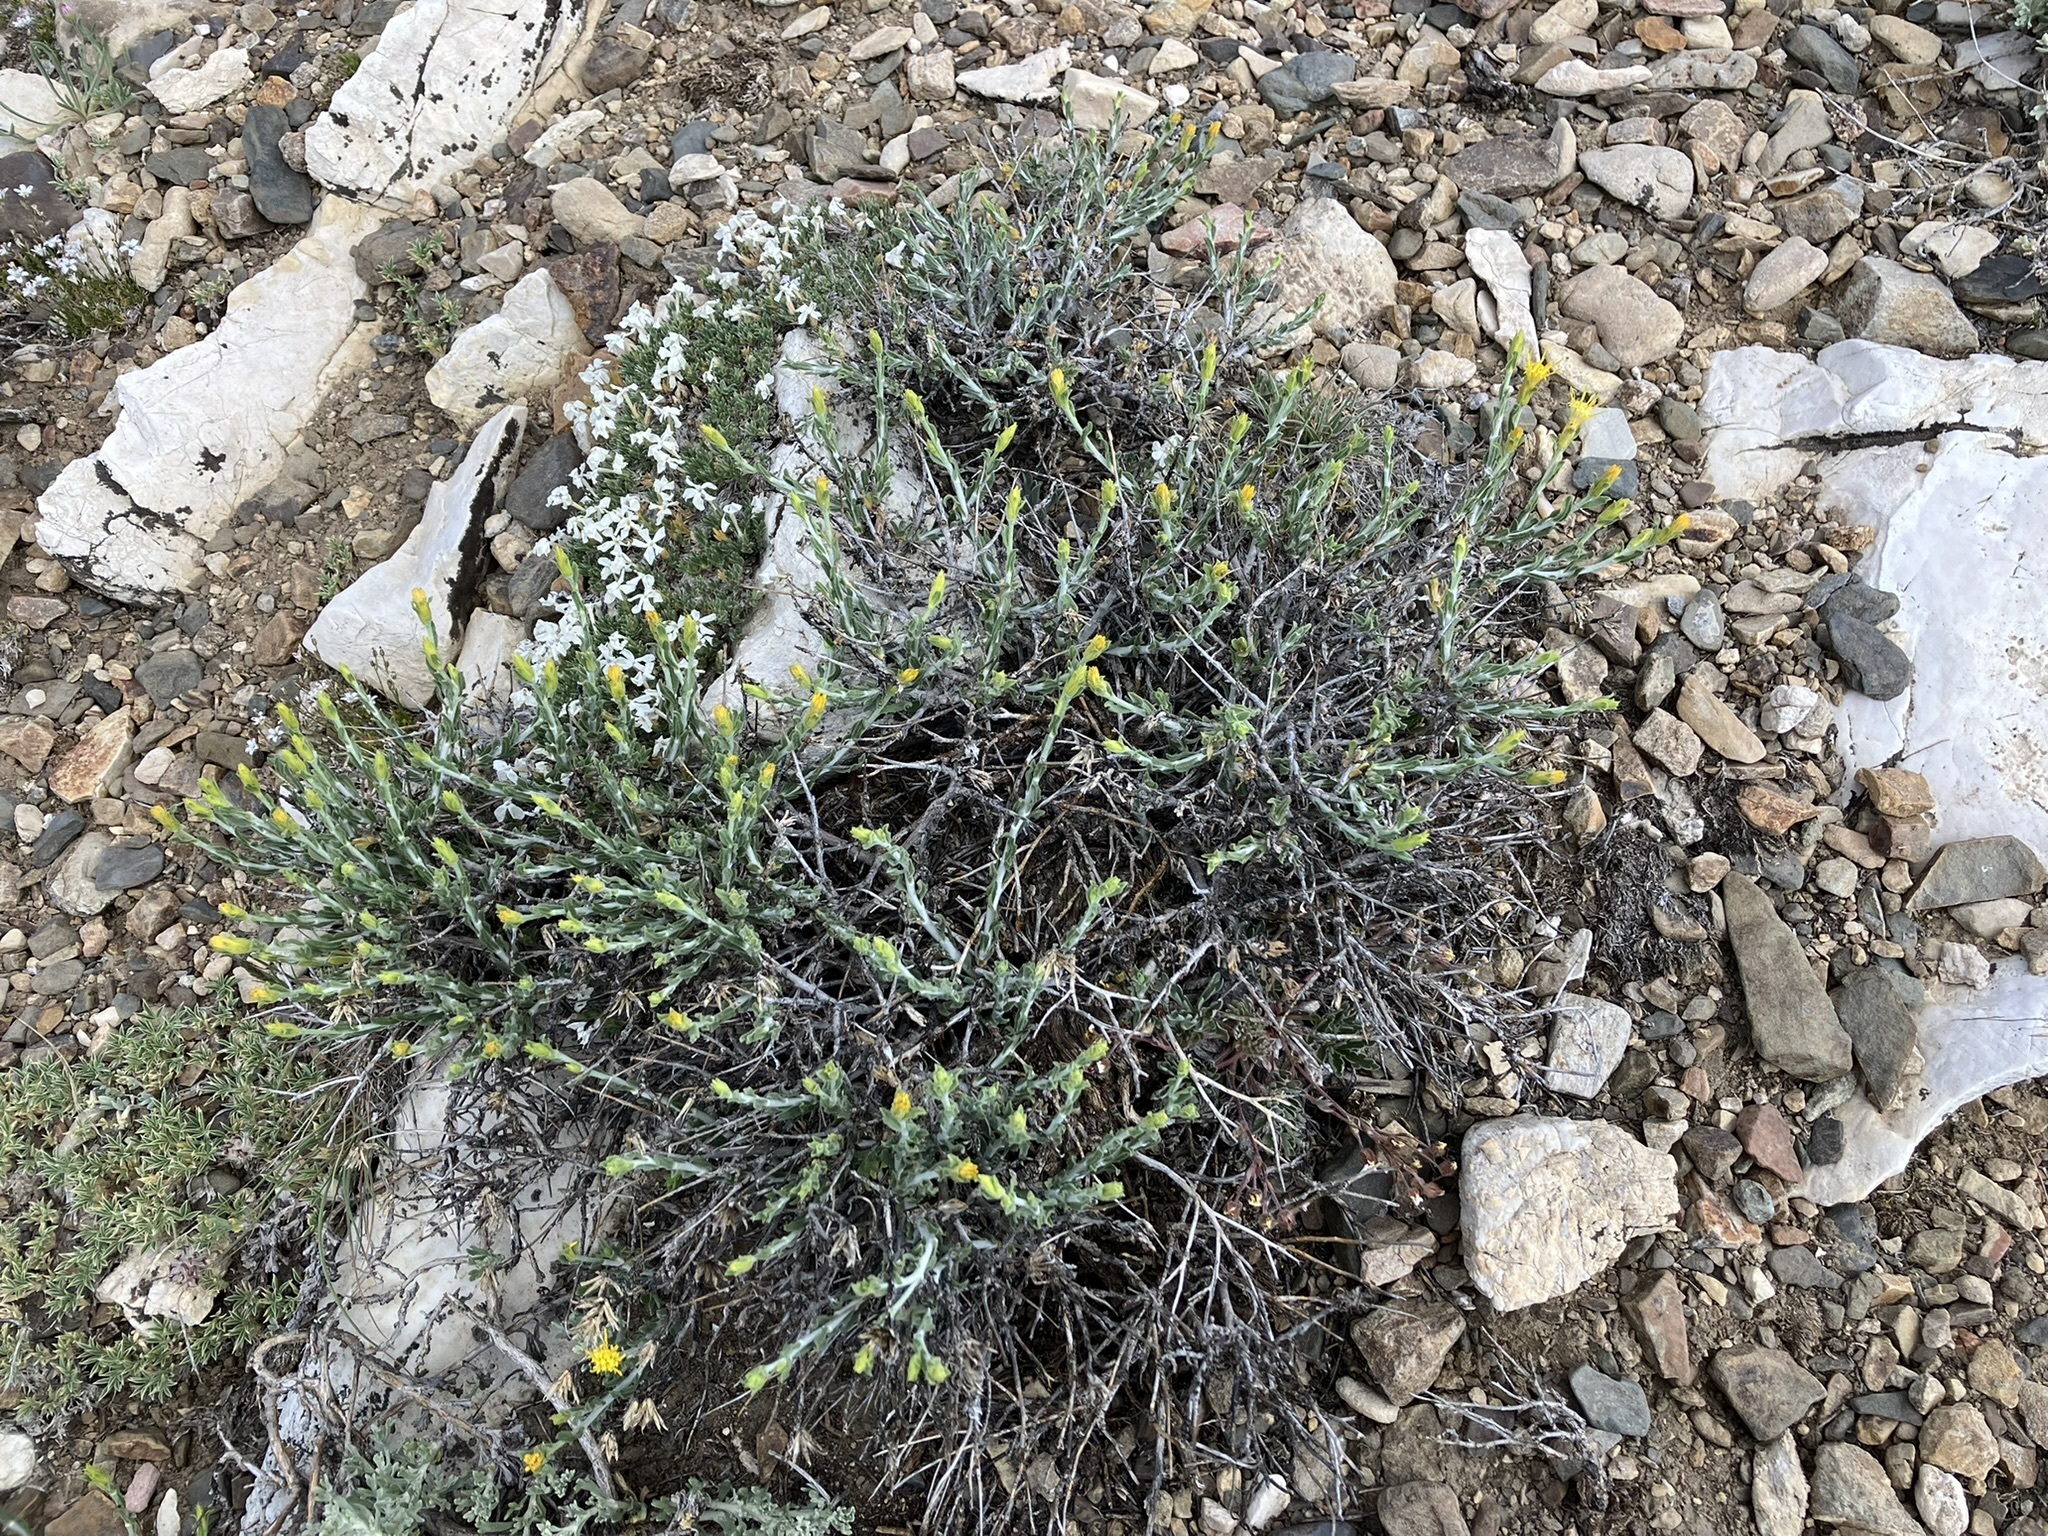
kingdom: Plantae
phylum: Tracheophyta
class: Magnoliopsida
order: Asterales
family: Asteraceae
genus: Ericameria
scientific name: Ericameria discoidea
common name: Sharp-scale goldenweed
